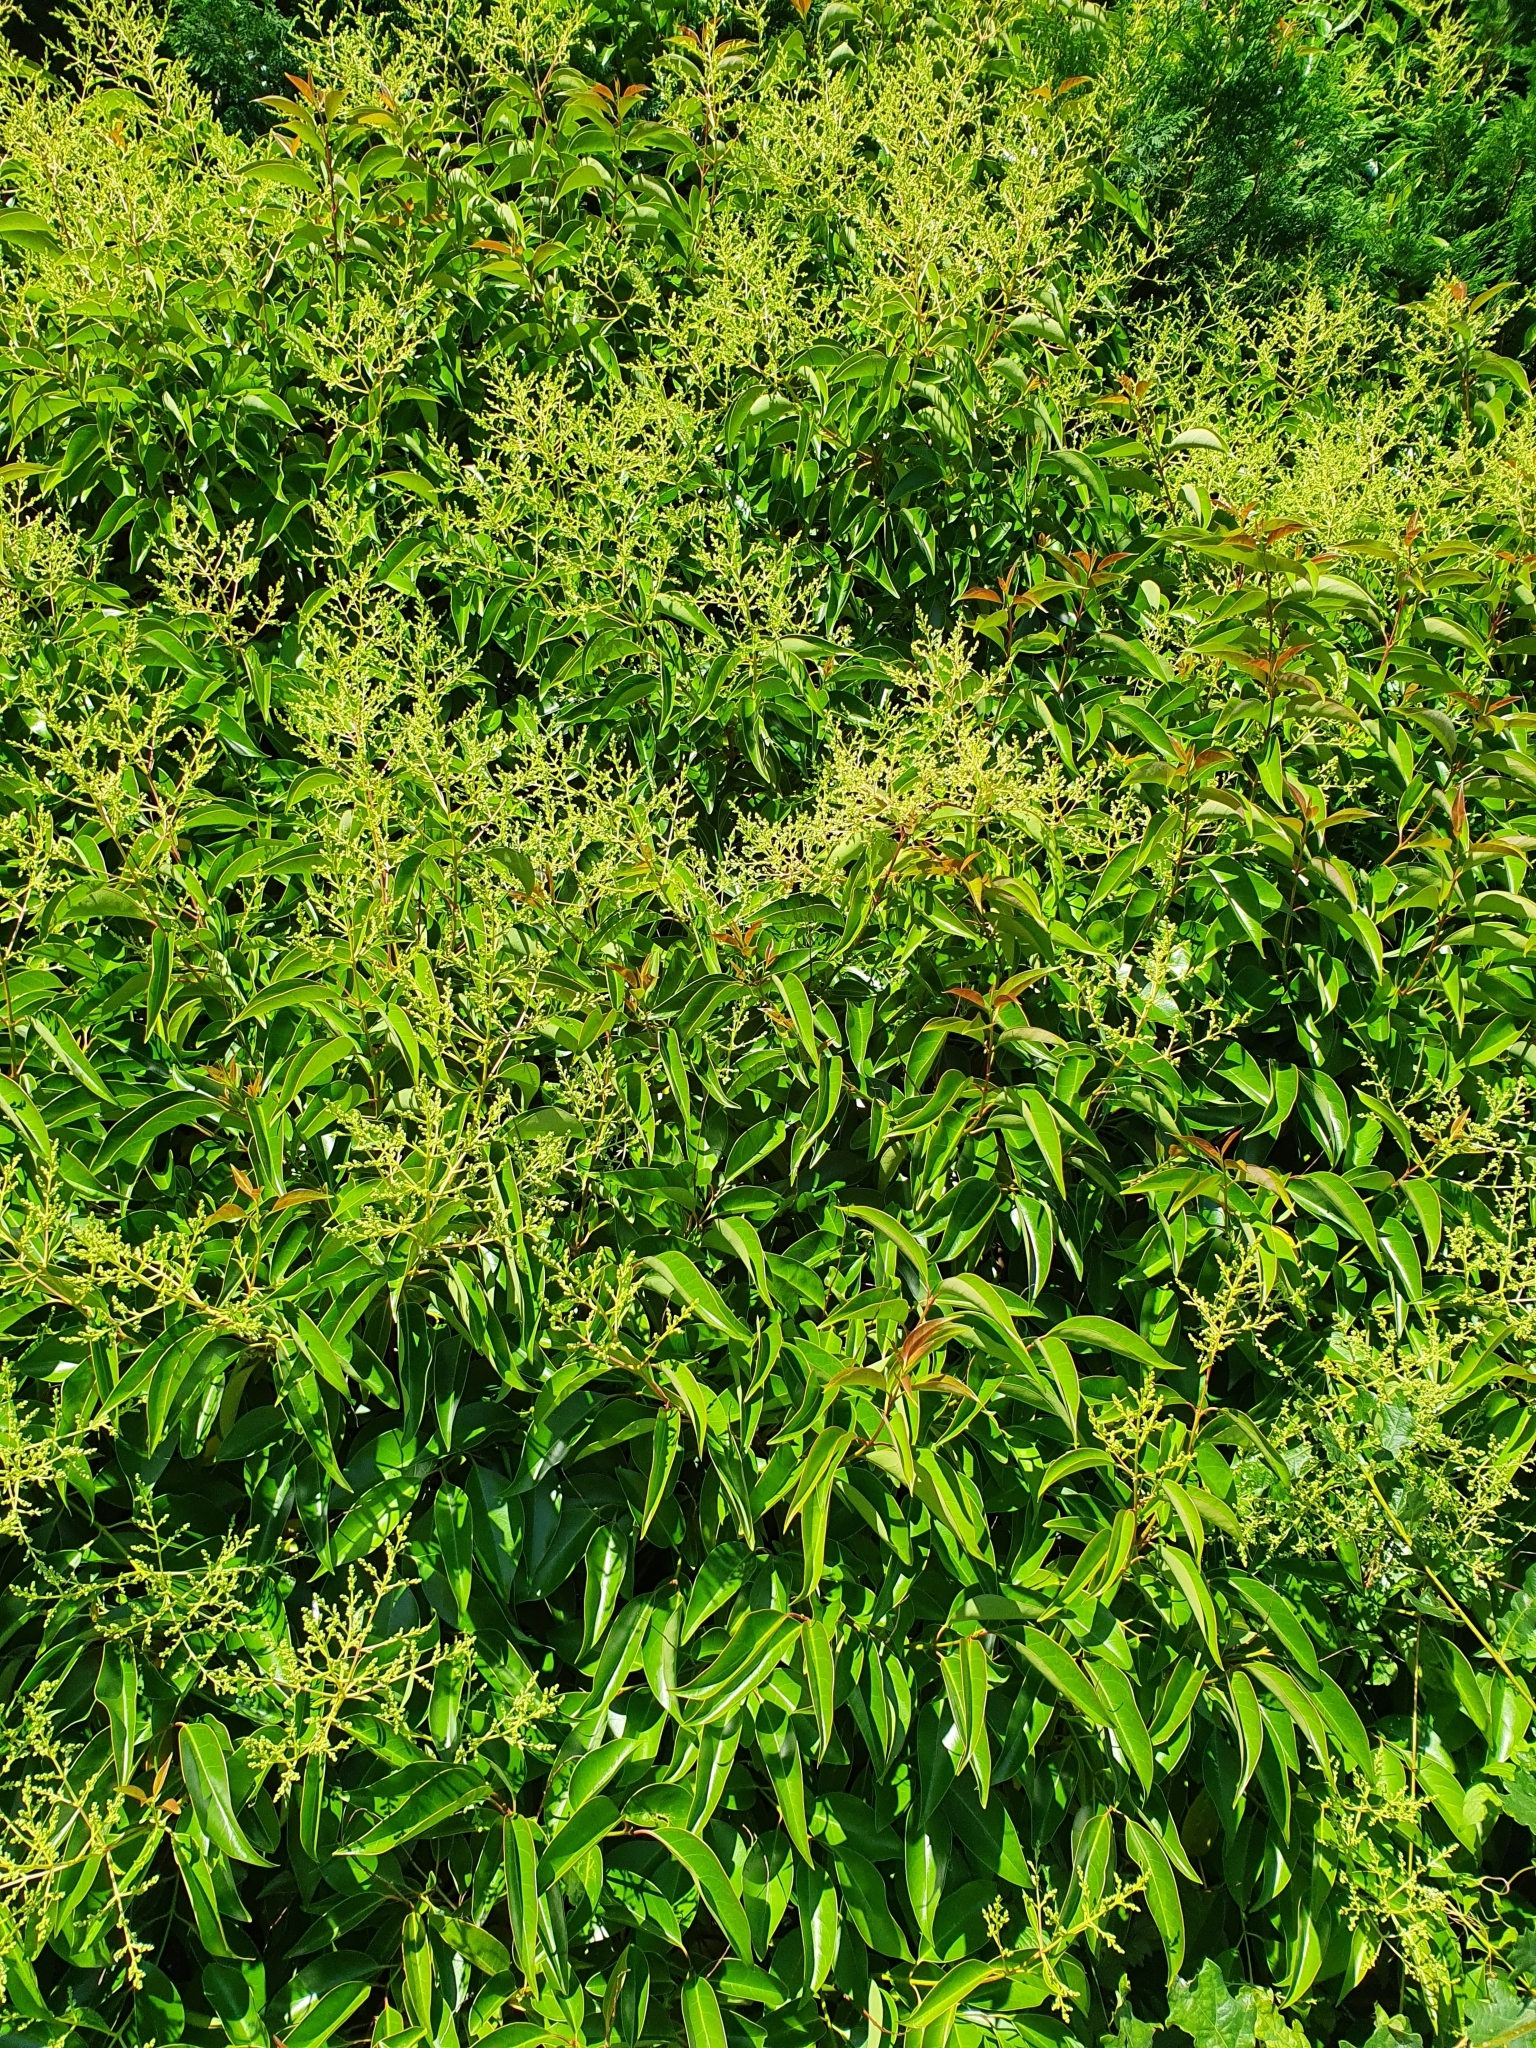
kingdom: Plantae
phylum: Tracheophyta
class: Magnoliopsida
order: Lamiales
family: Oleaceae
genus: Ligustrum
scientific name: Ligustrum lucidum
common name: Glossy privet
